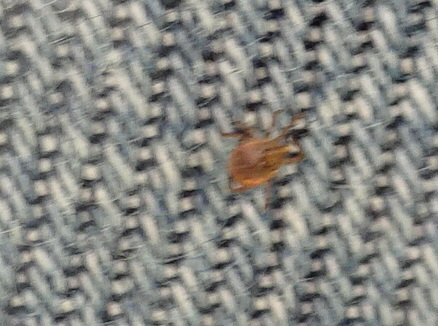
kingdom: Animalia
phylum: Arthropoda
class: Arachnida
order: Ixodida
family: Ixodidae
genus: Amblyomma
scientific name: Amblyomma americanum
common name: Lone star tick
